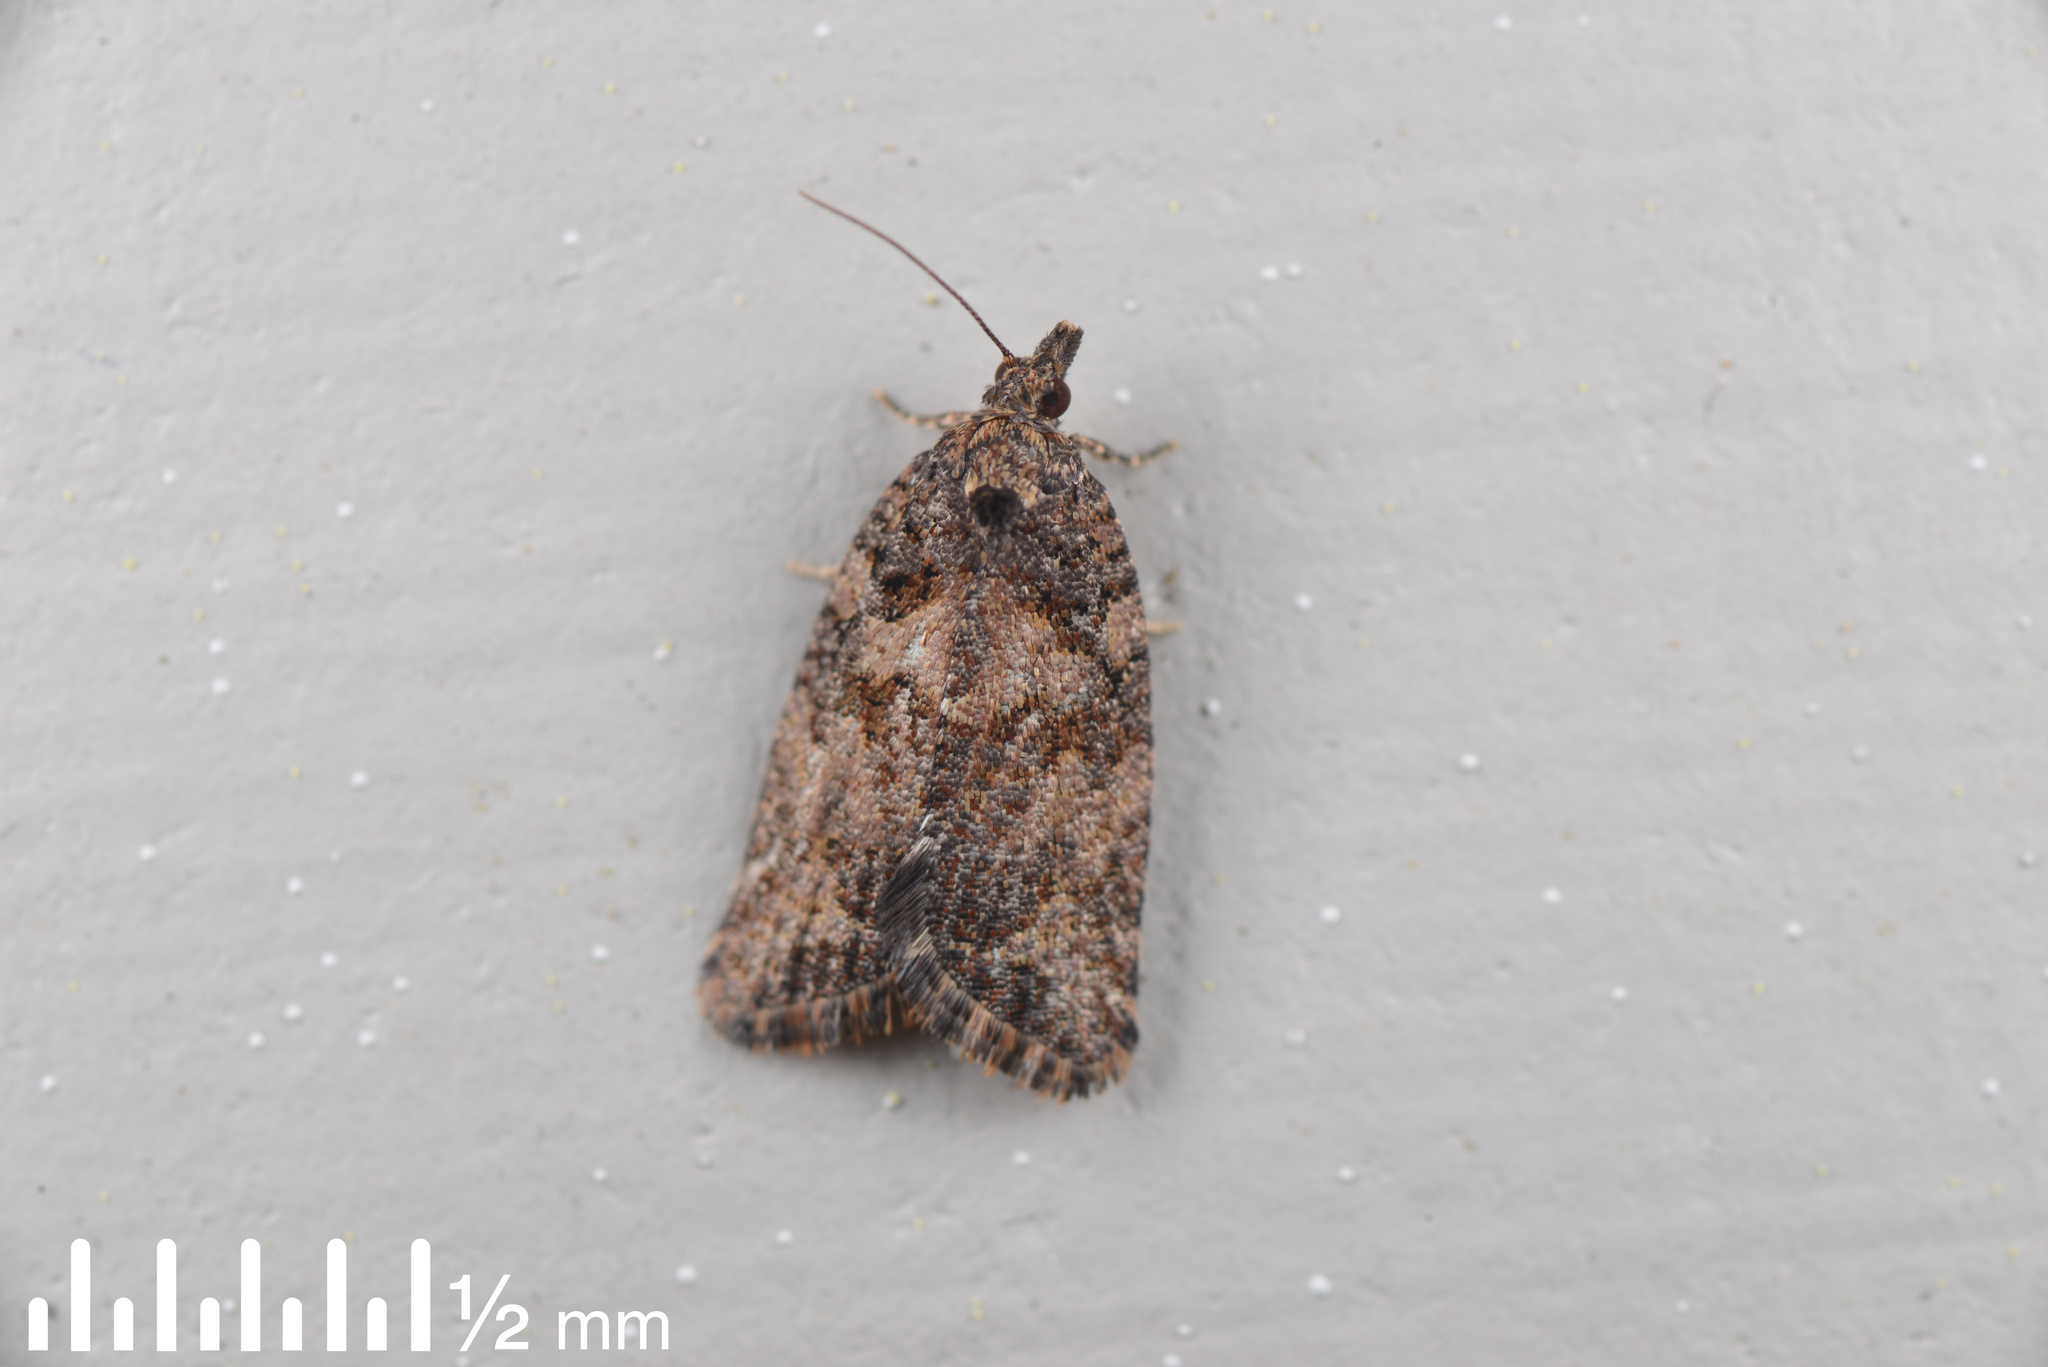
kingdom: Animalia
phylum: Arthropoda
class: Insecta
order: Lepidoptera
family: Tortricidae
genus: Capua
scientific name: Capua intractana
